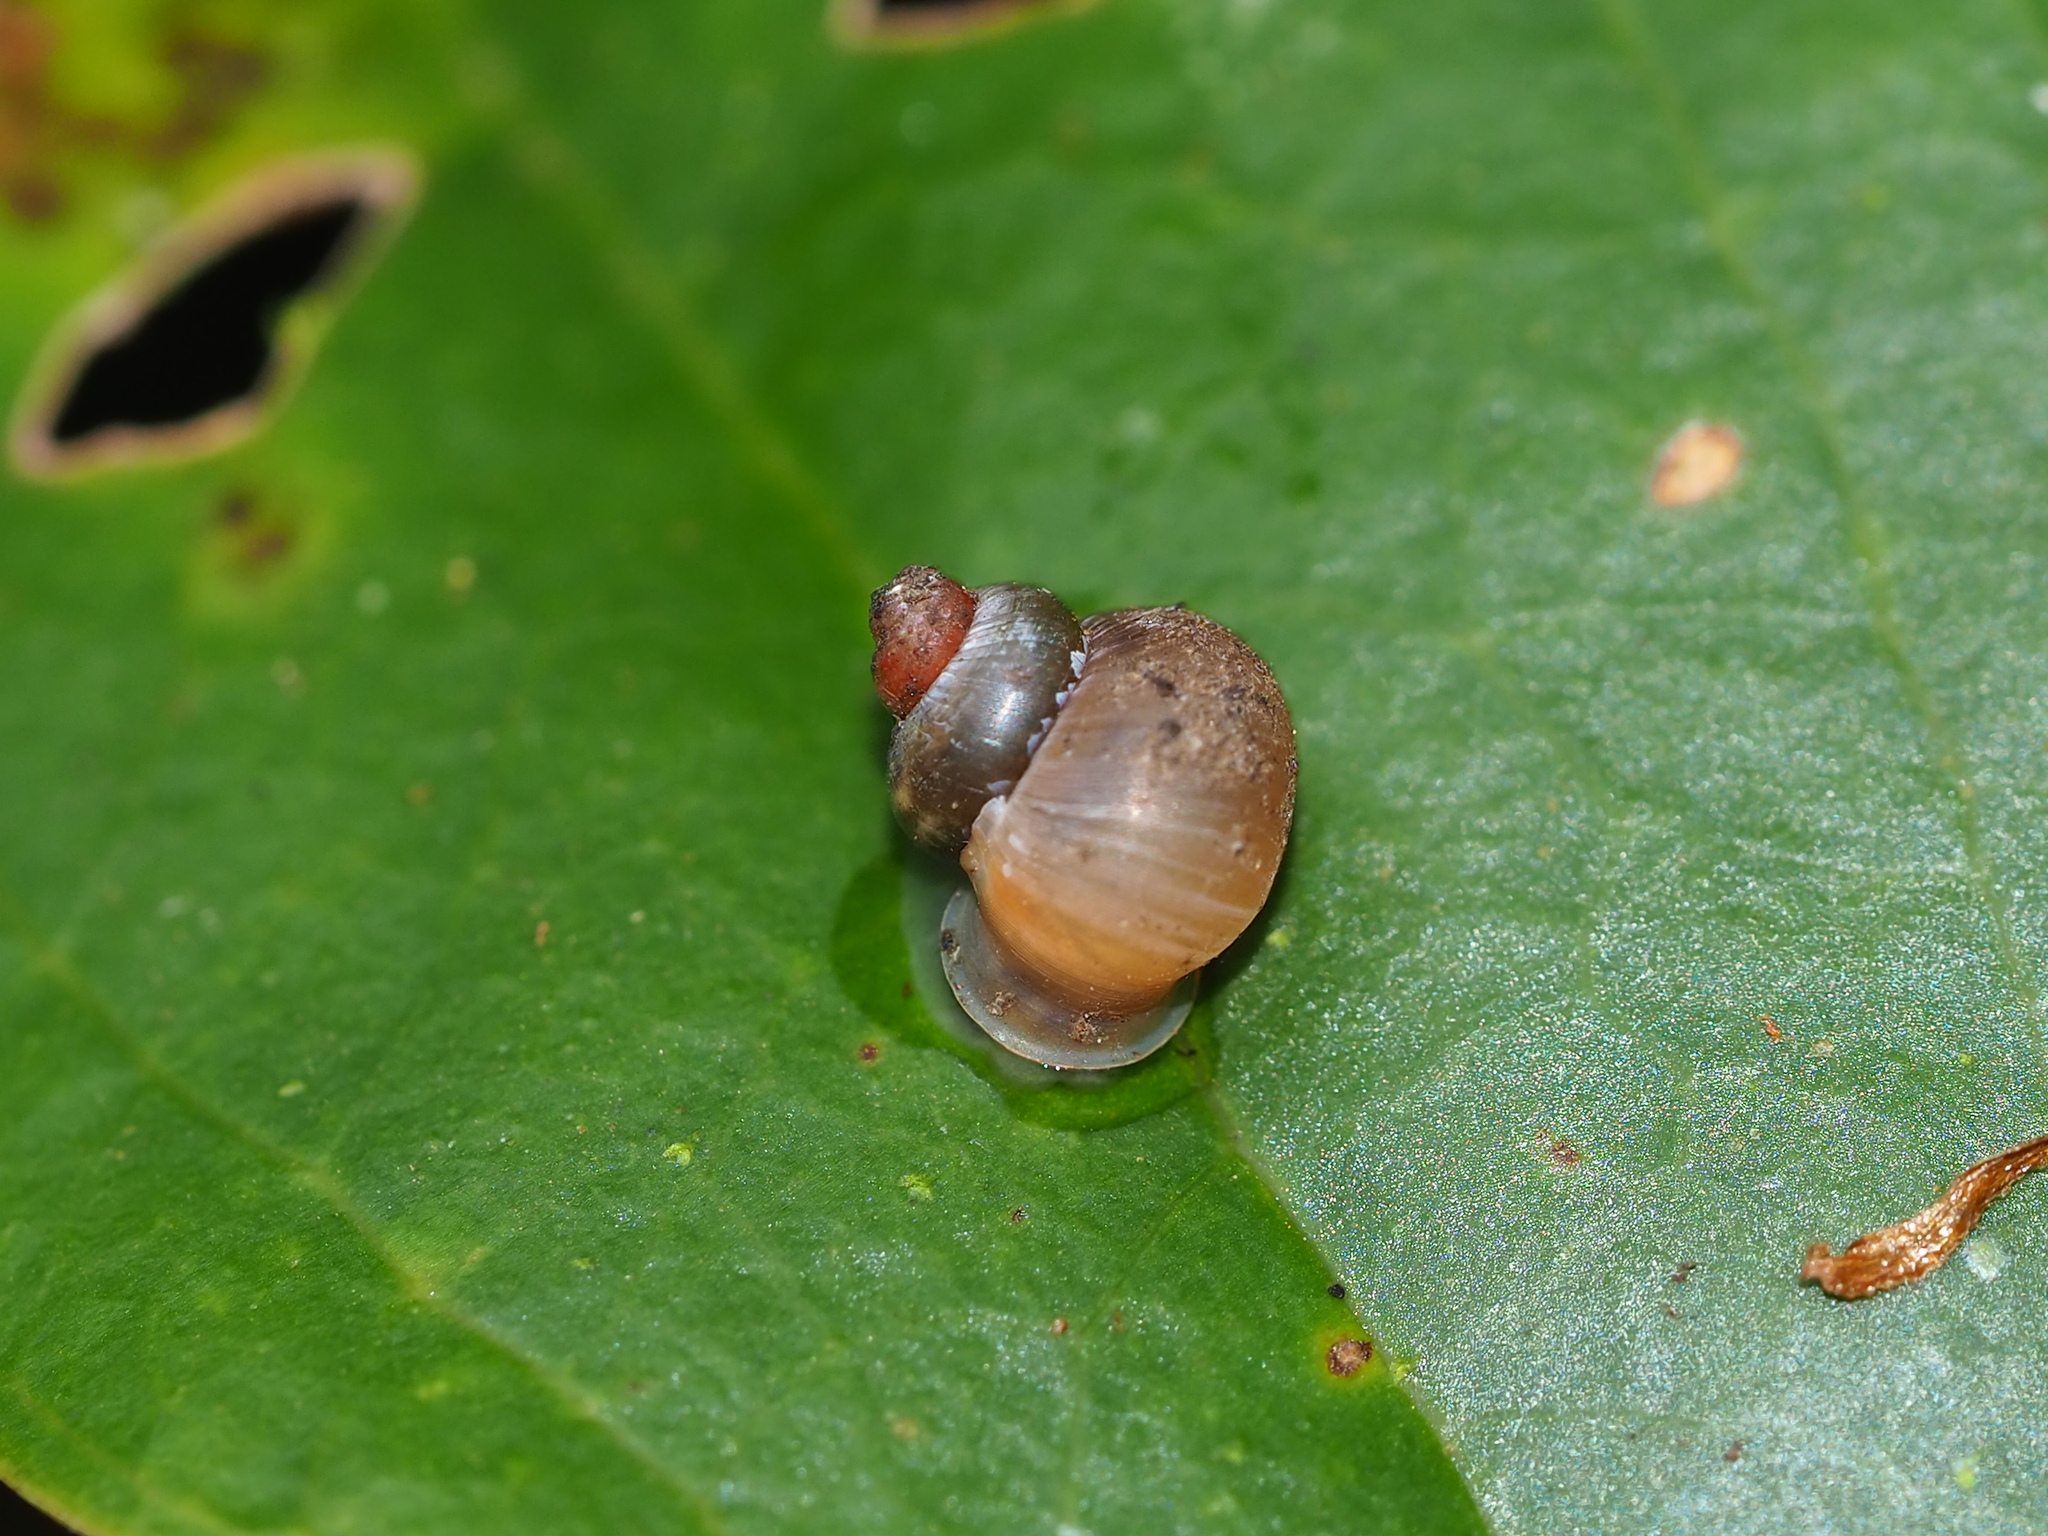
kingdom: Animalia
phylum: Mollusca
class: Gastropoda
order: Architaenioglossa
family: Alycaeidae
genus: Dioryx
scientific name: Dioryx swinhoei
